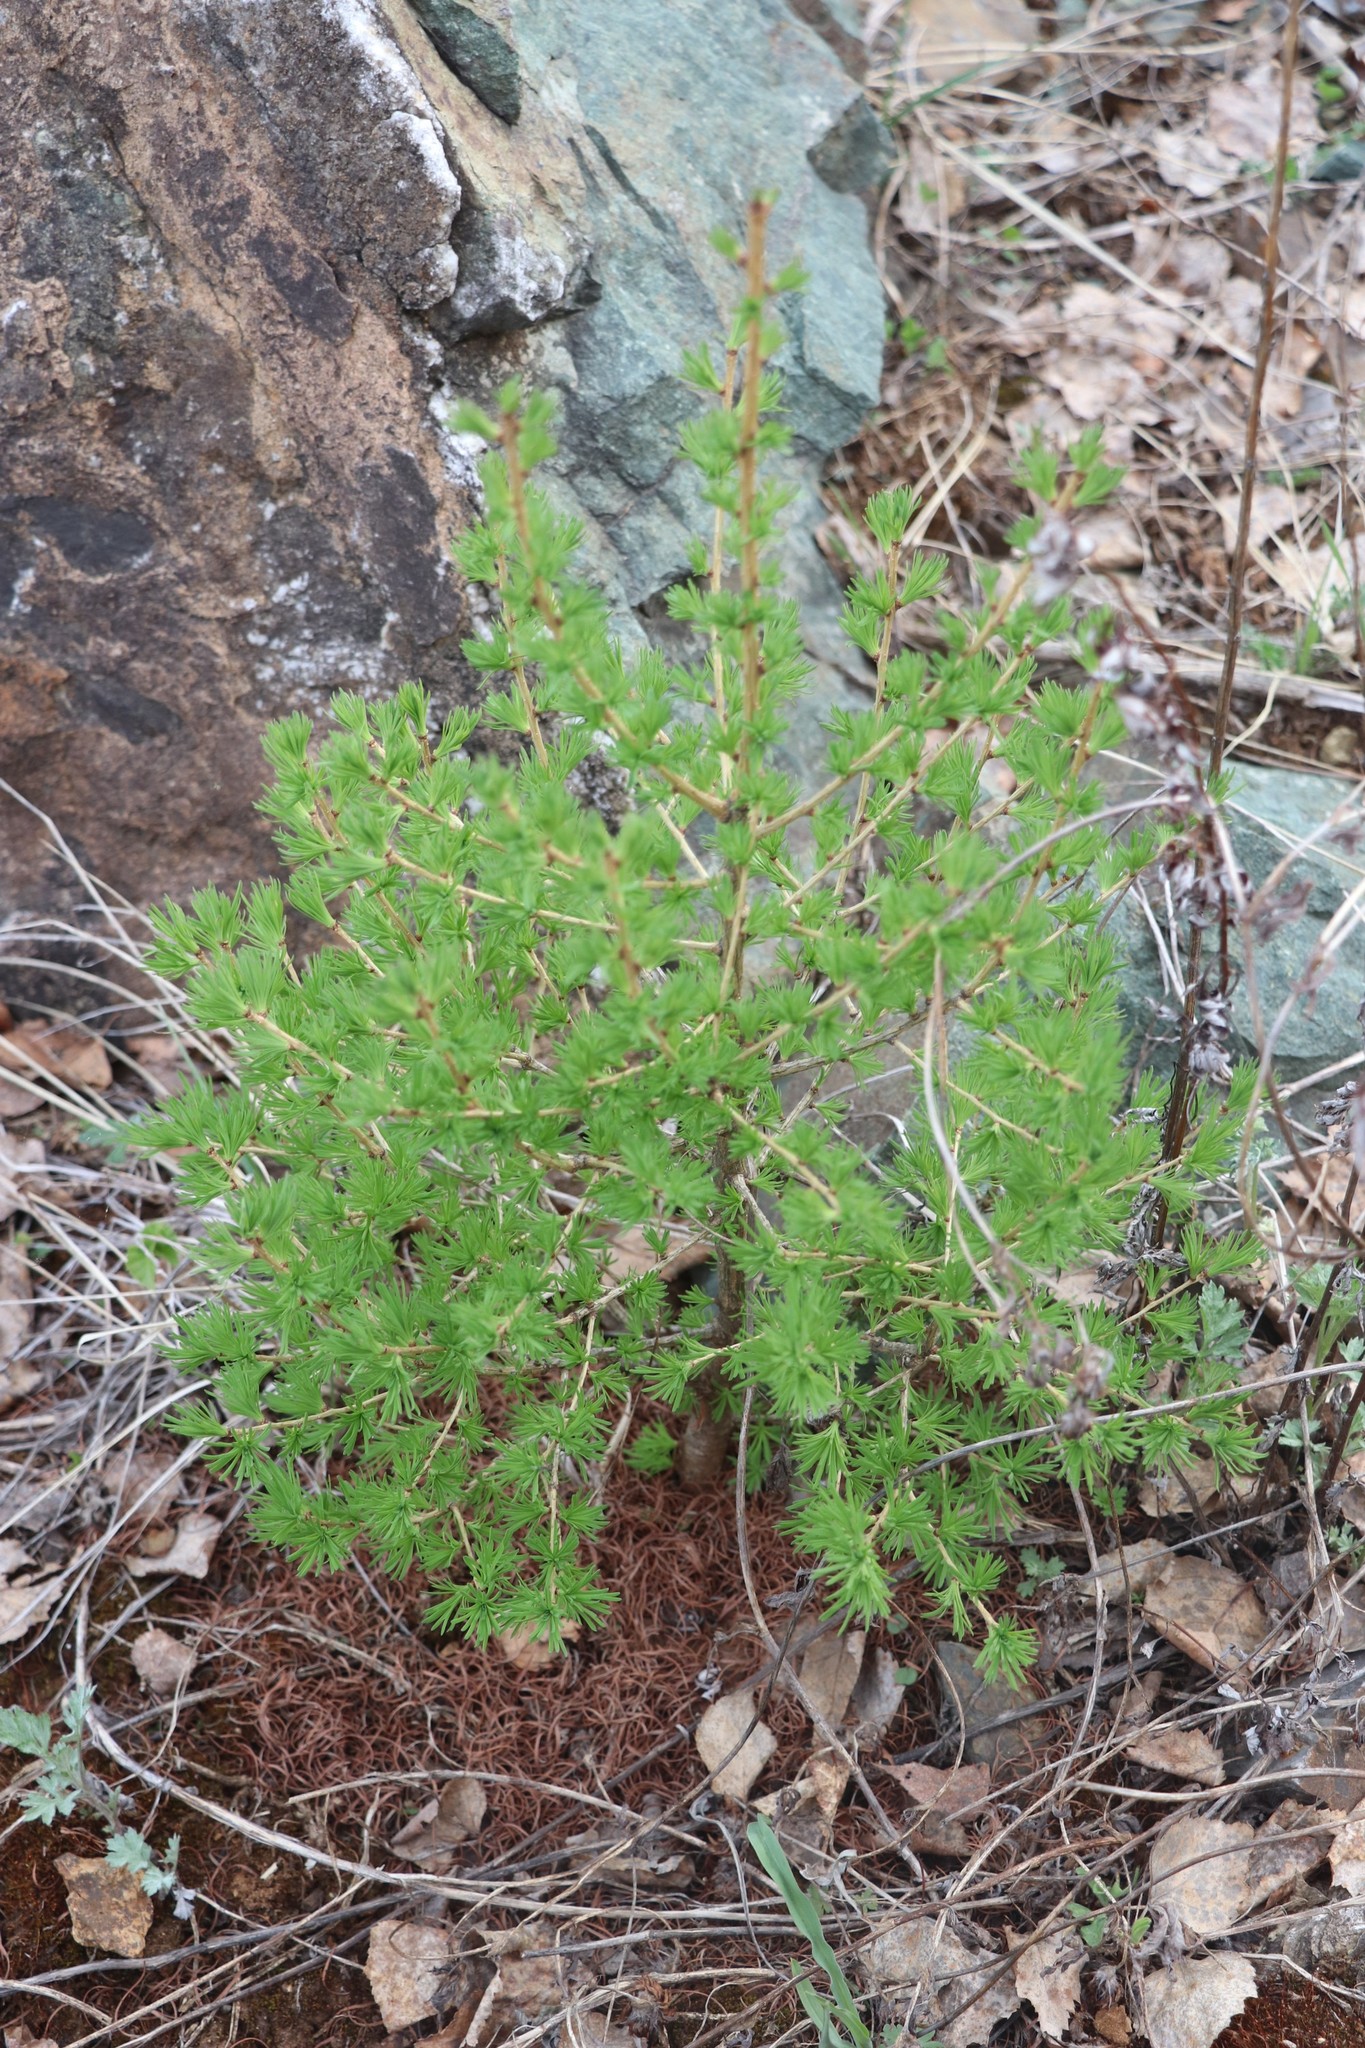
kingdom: Plantae
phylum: Tracheophyta
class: Pinopsida
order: Pinales
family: Pinaceae
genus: Larix
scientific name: Larix sibirica
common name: Siberian larch
